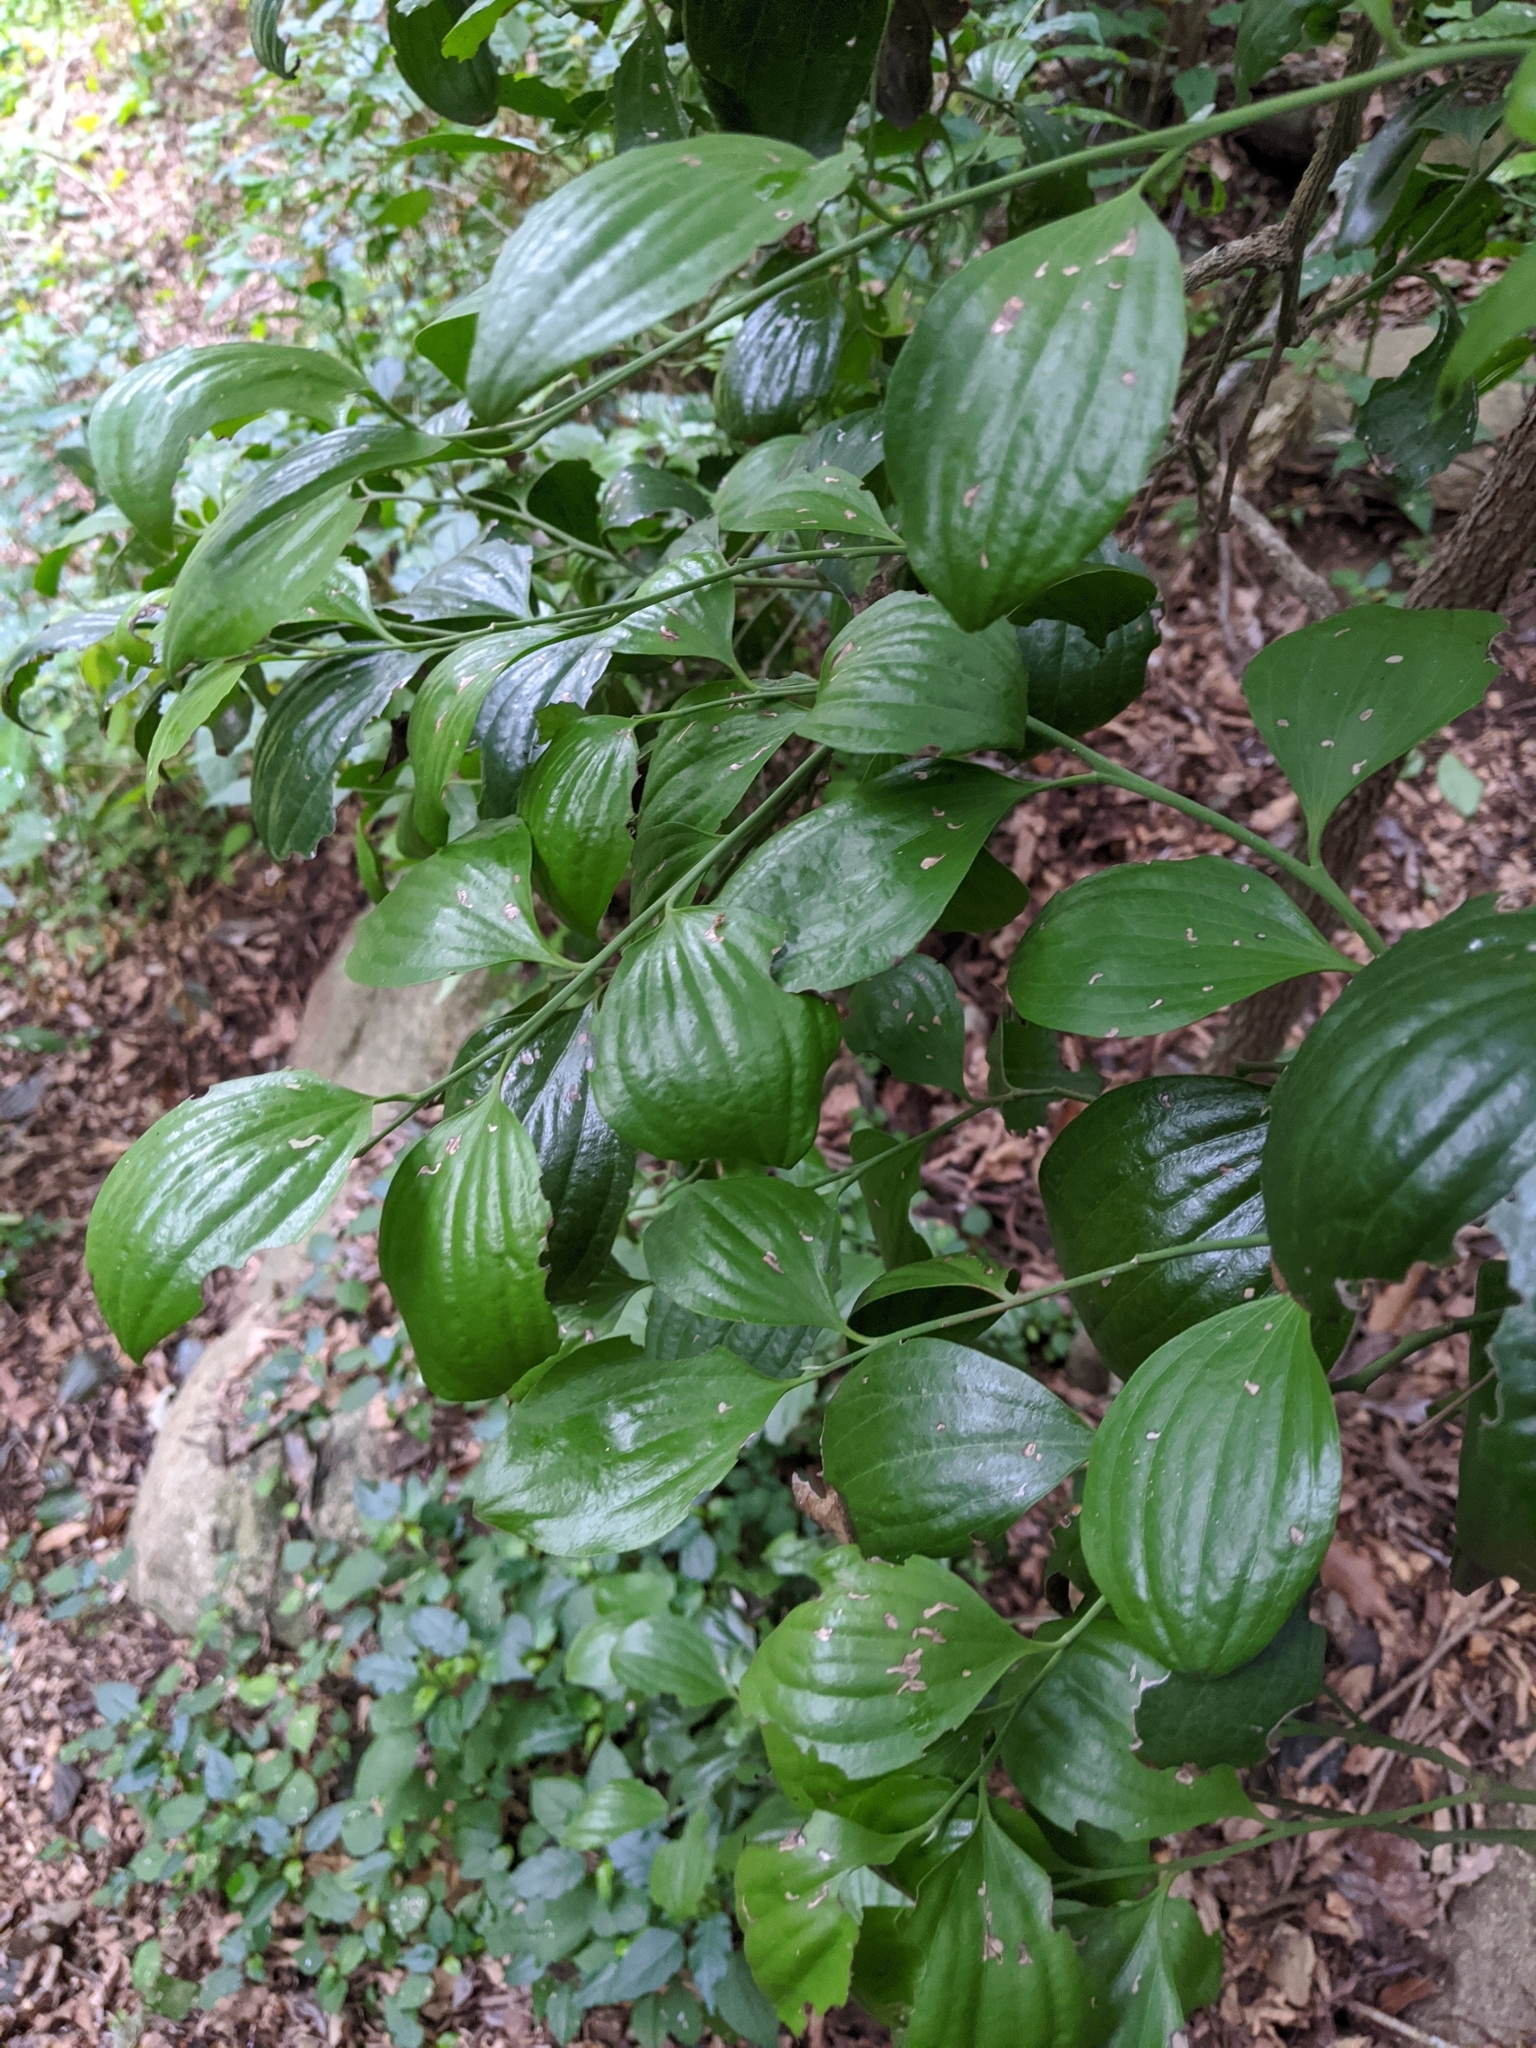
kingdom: Plantae
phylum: Tracheophyta
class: Magnoliopsida
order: Santalales
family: Santalaceae
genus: Exocarpos
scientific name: Exocarpos latifolius
